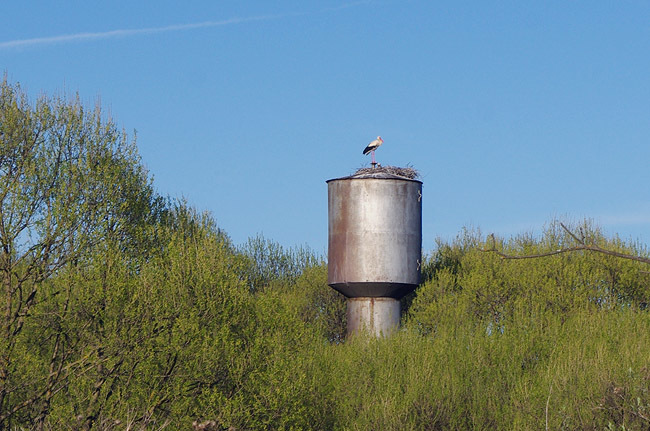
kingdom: Animalia
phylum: Chordata
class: Aves
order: Ciconiiformes
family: Ciconiidae
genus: Ciconia
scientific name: Ciconia ciconia
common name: White stork
